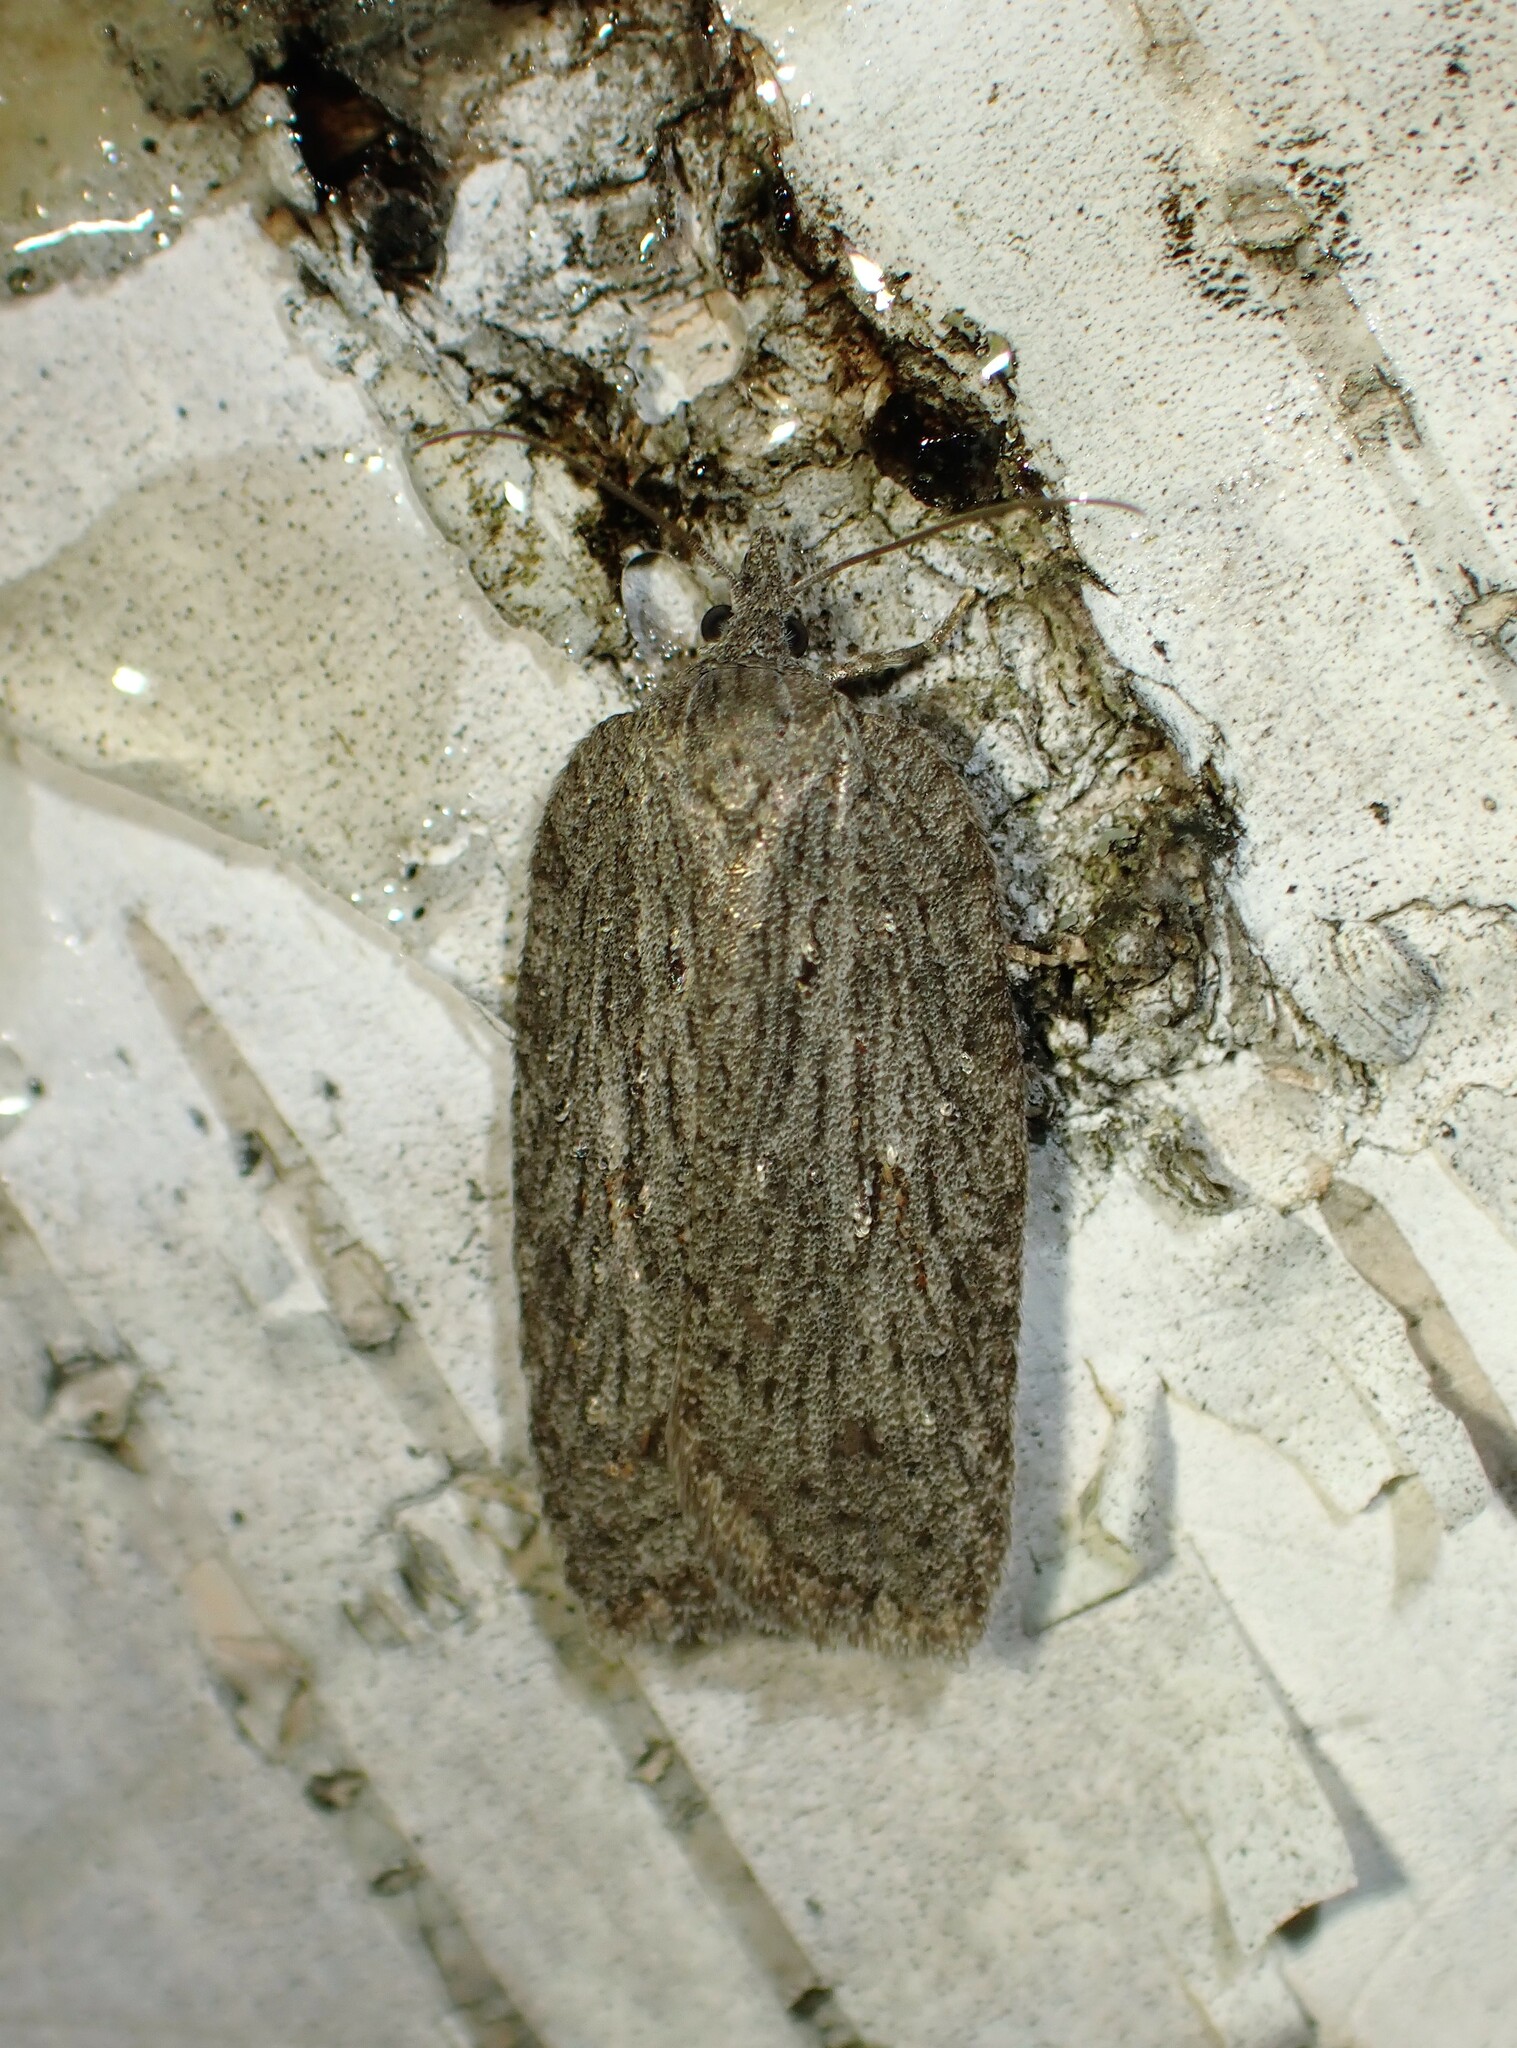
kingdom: Animalia
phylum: Arthropoda
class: Insecta
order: Lepidoptera
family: Tortricidae
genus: Acleris
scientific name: Acleris maximana
